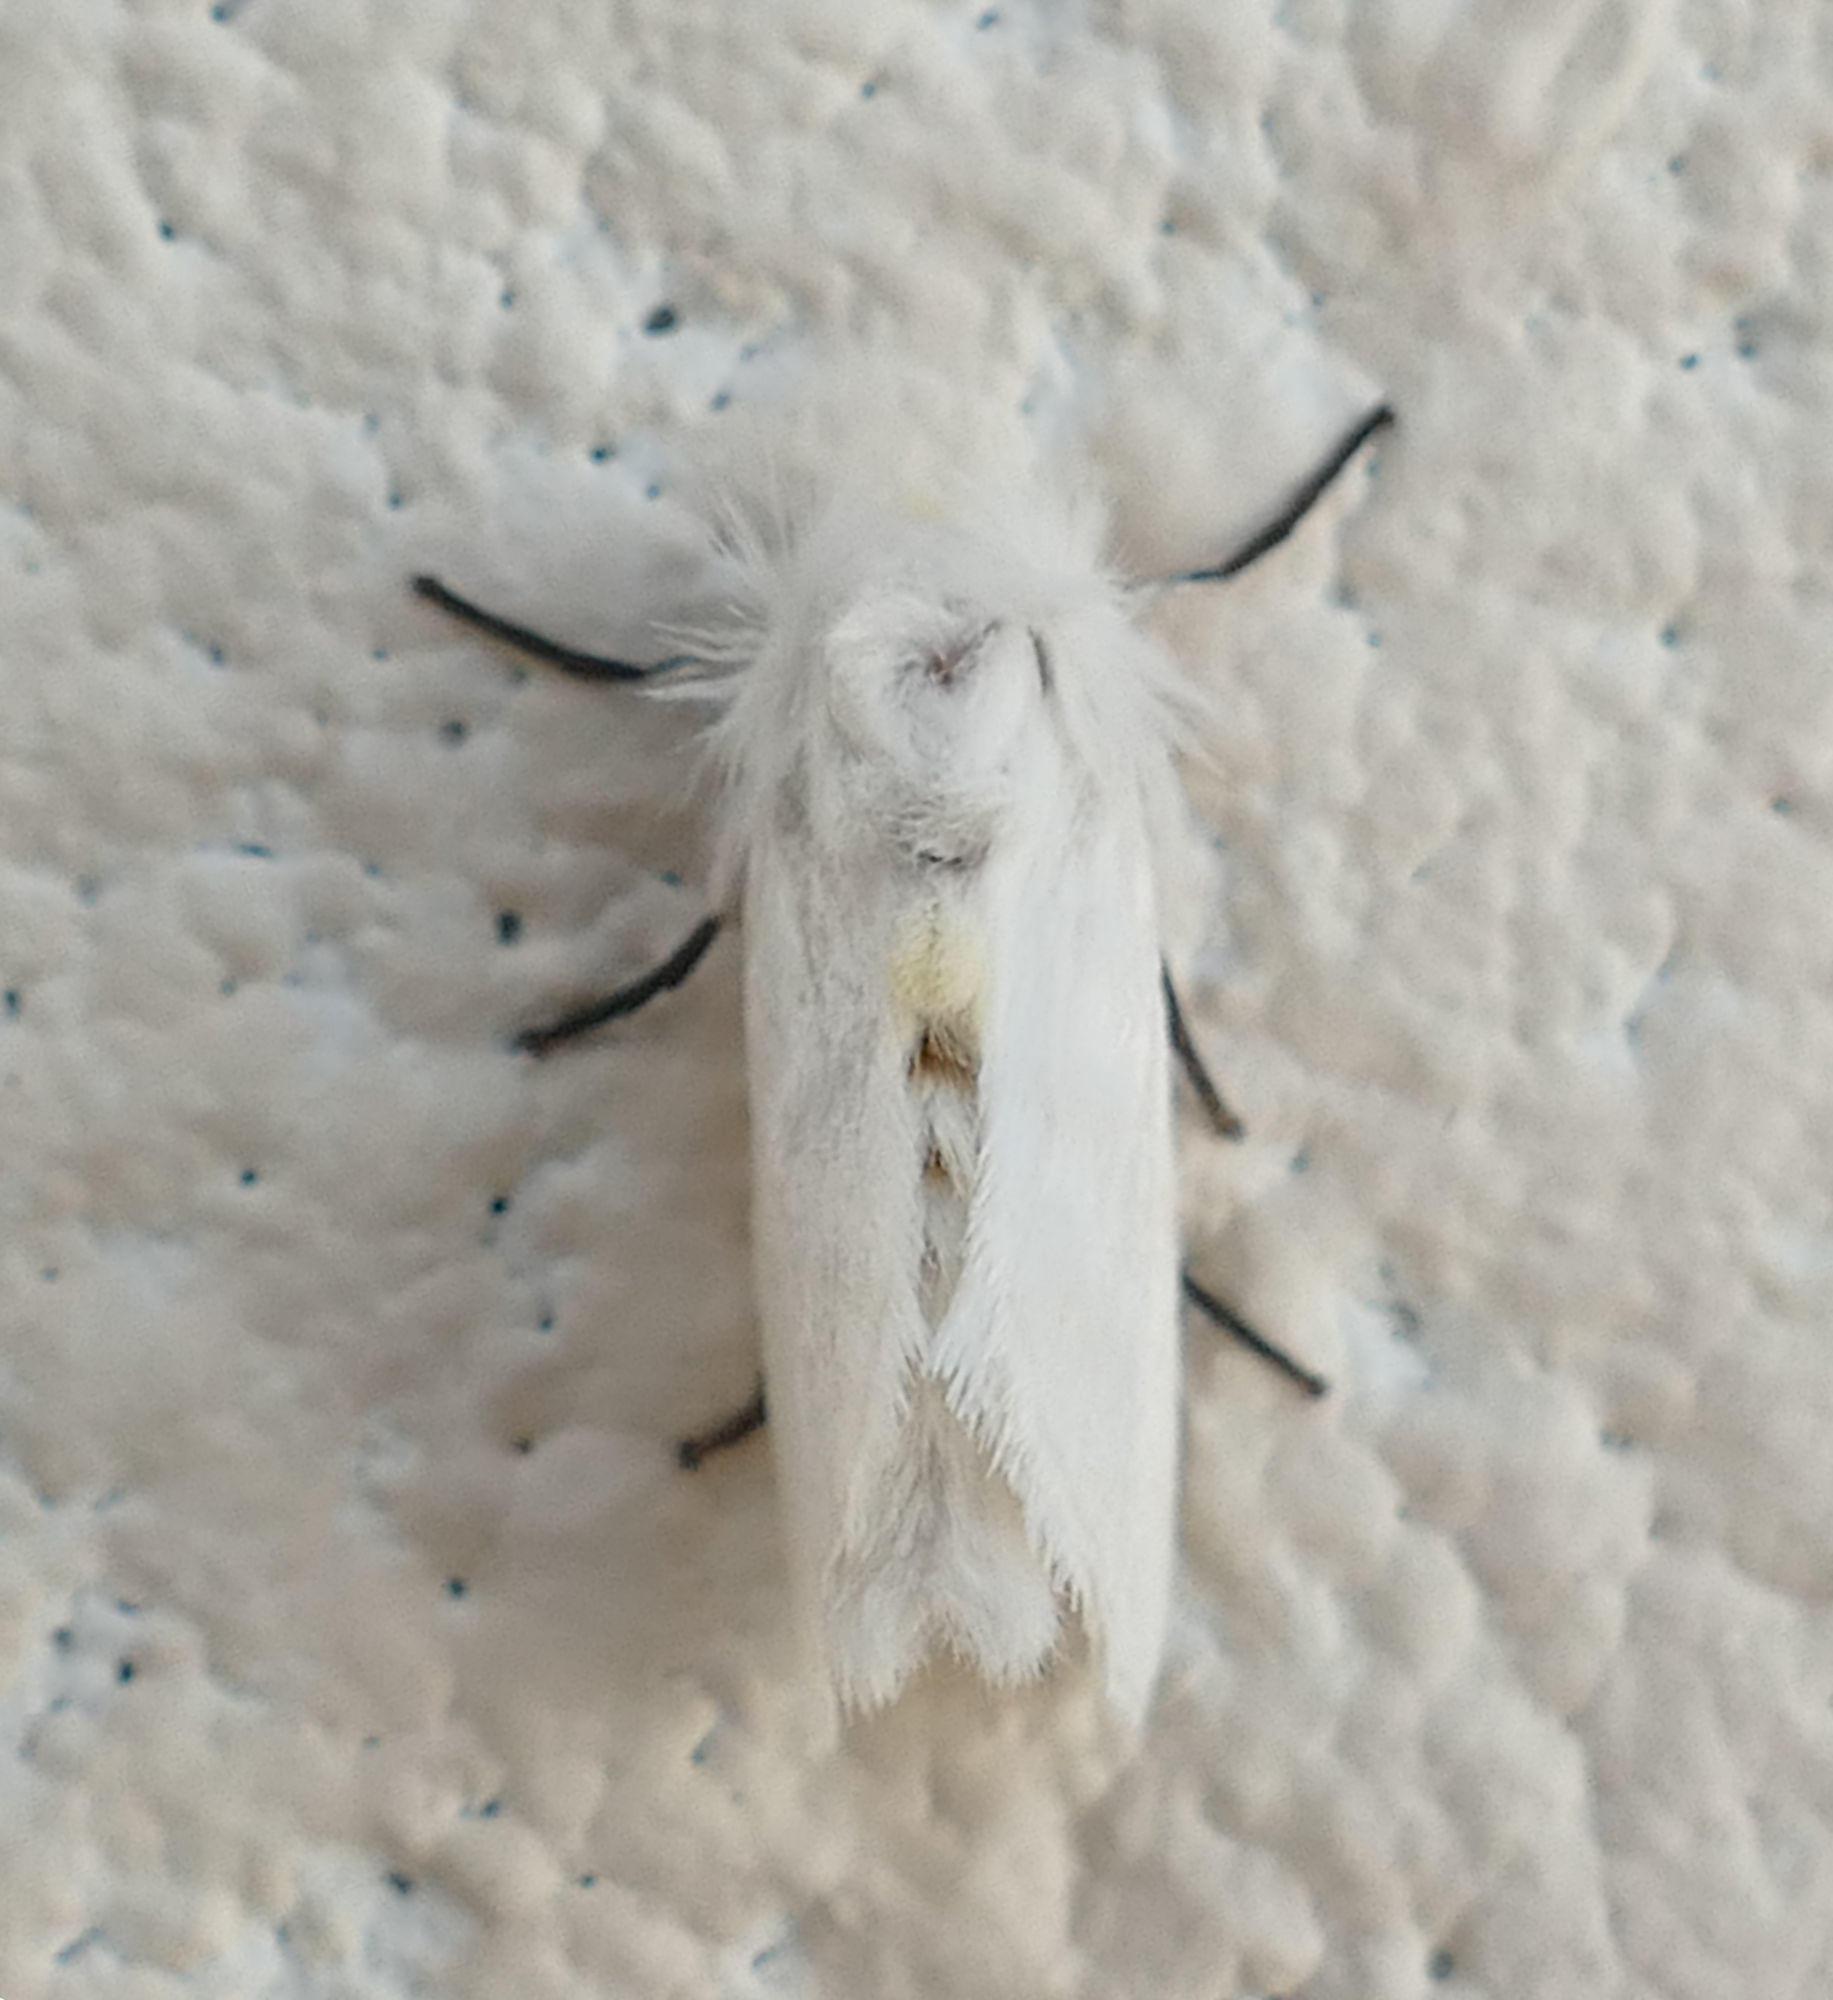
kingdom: Animalia
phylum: Arthropoda
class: Insecta
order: Lepidoptera
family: Megalopygidae
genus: Norape
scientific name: Norape virgo
